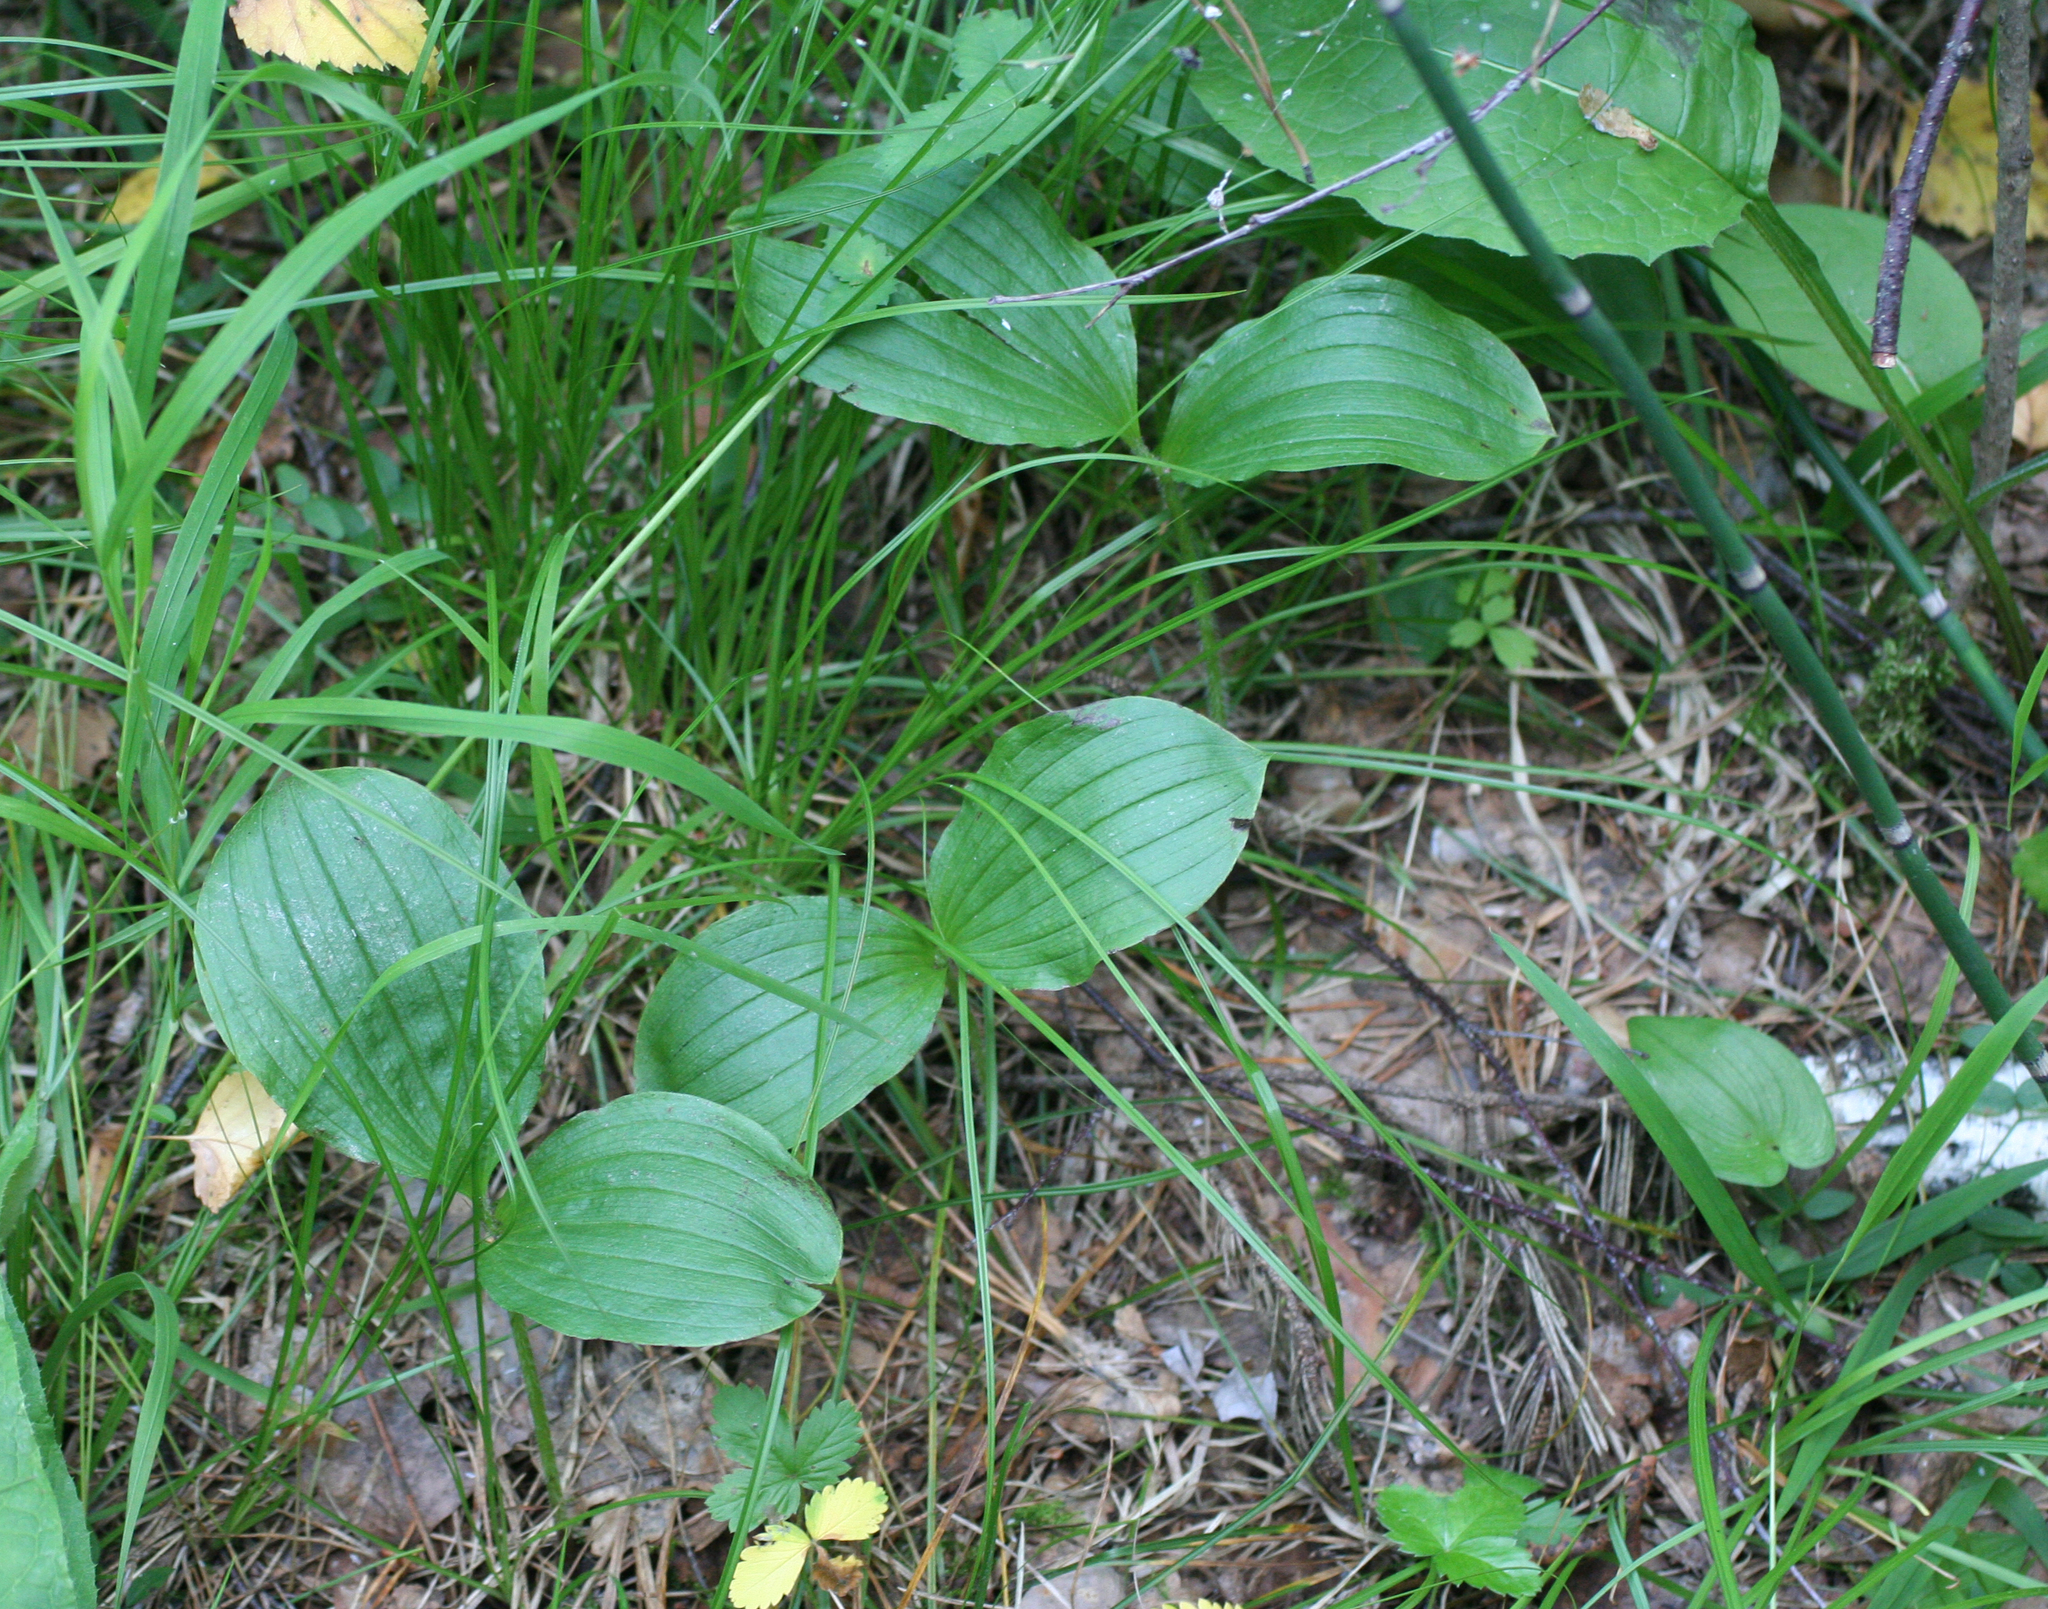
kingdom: Plantae
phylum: Tracheophyta
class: Liliopsida
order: Asparagales
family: Orchidaceae
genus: Cypripedium
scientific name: Cypripedium guttatum
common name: Pink lady slipper
